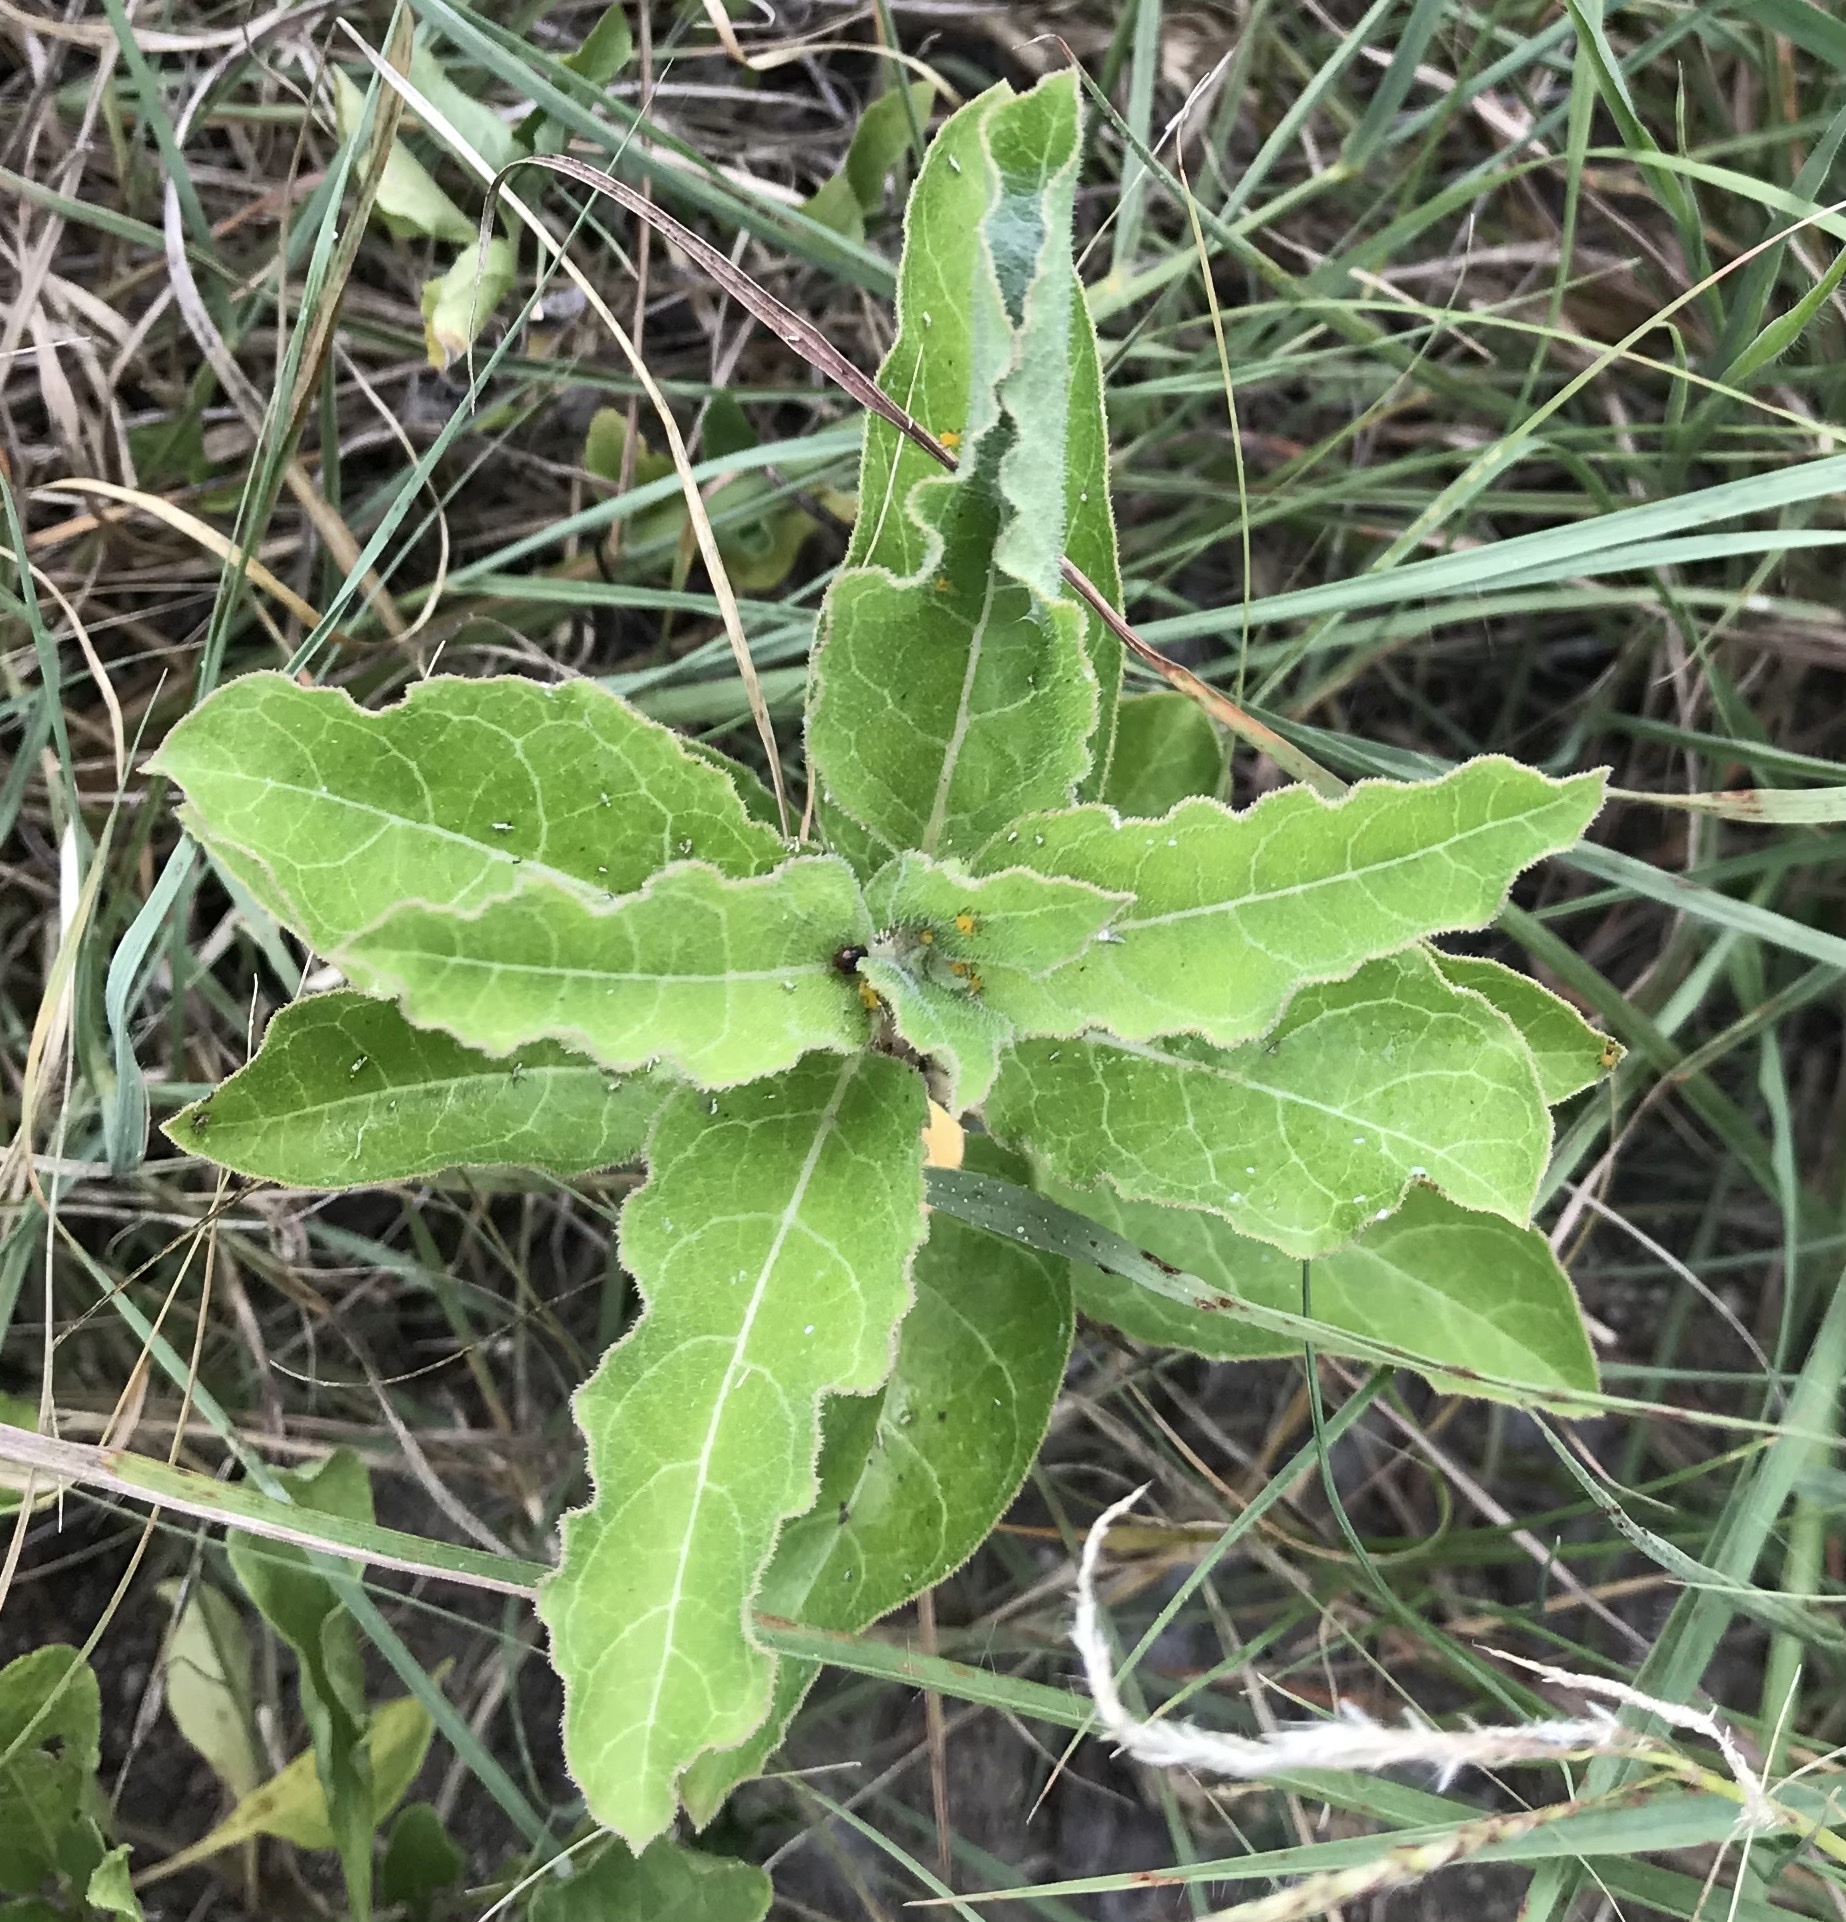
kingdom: Plantae
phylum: Tracheophyta
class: Magnoliopsida
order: Gentianales
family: Apocynaceae
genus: Asclepias
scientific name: Asclepias oenotheroides
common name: Zizotes milkweed
